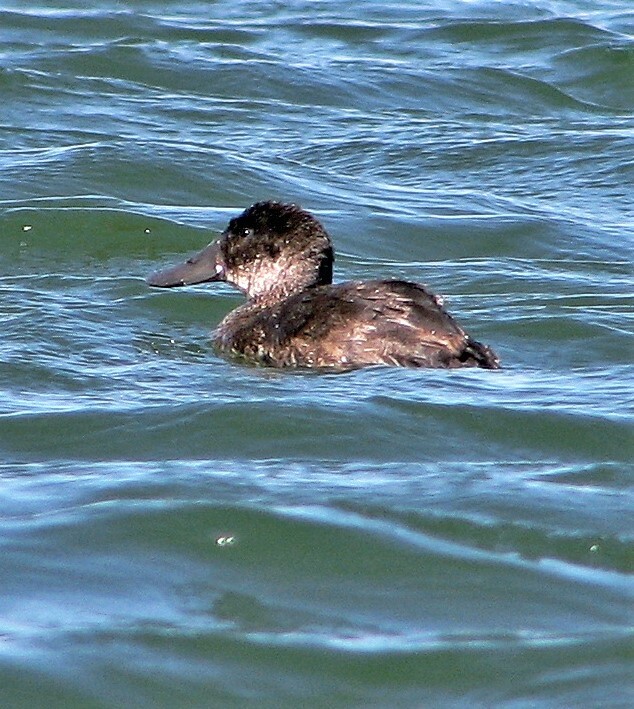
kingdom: Animalia
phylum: Chordata
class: Aves
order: Anseriformes
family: Anatidae
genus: Oxyura
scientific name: Oxyura ferruginea
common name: Andean duck
